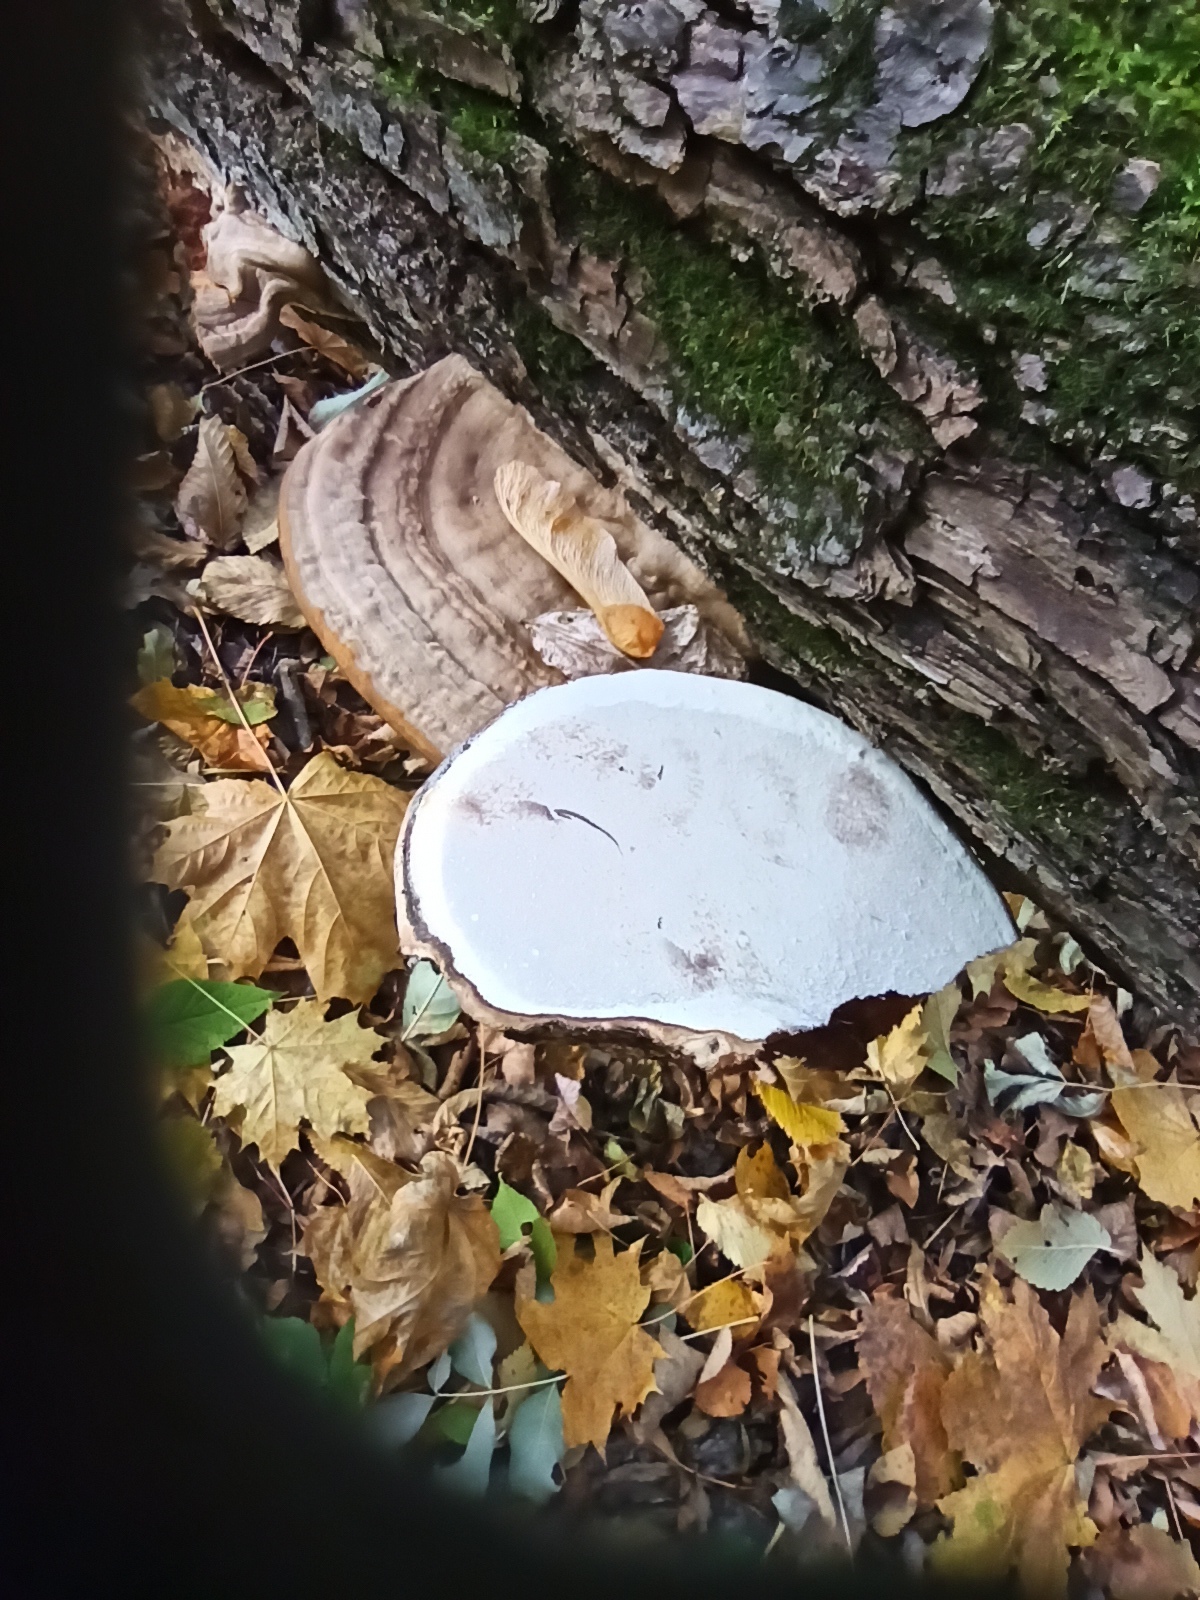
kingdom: Fungi
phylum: Basidiomycota
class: Agaricomycetes
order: Polyporales
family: Polyporaceae
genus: Ganoderma
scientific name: Ganoderma applanatum
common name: Artist's bracket
